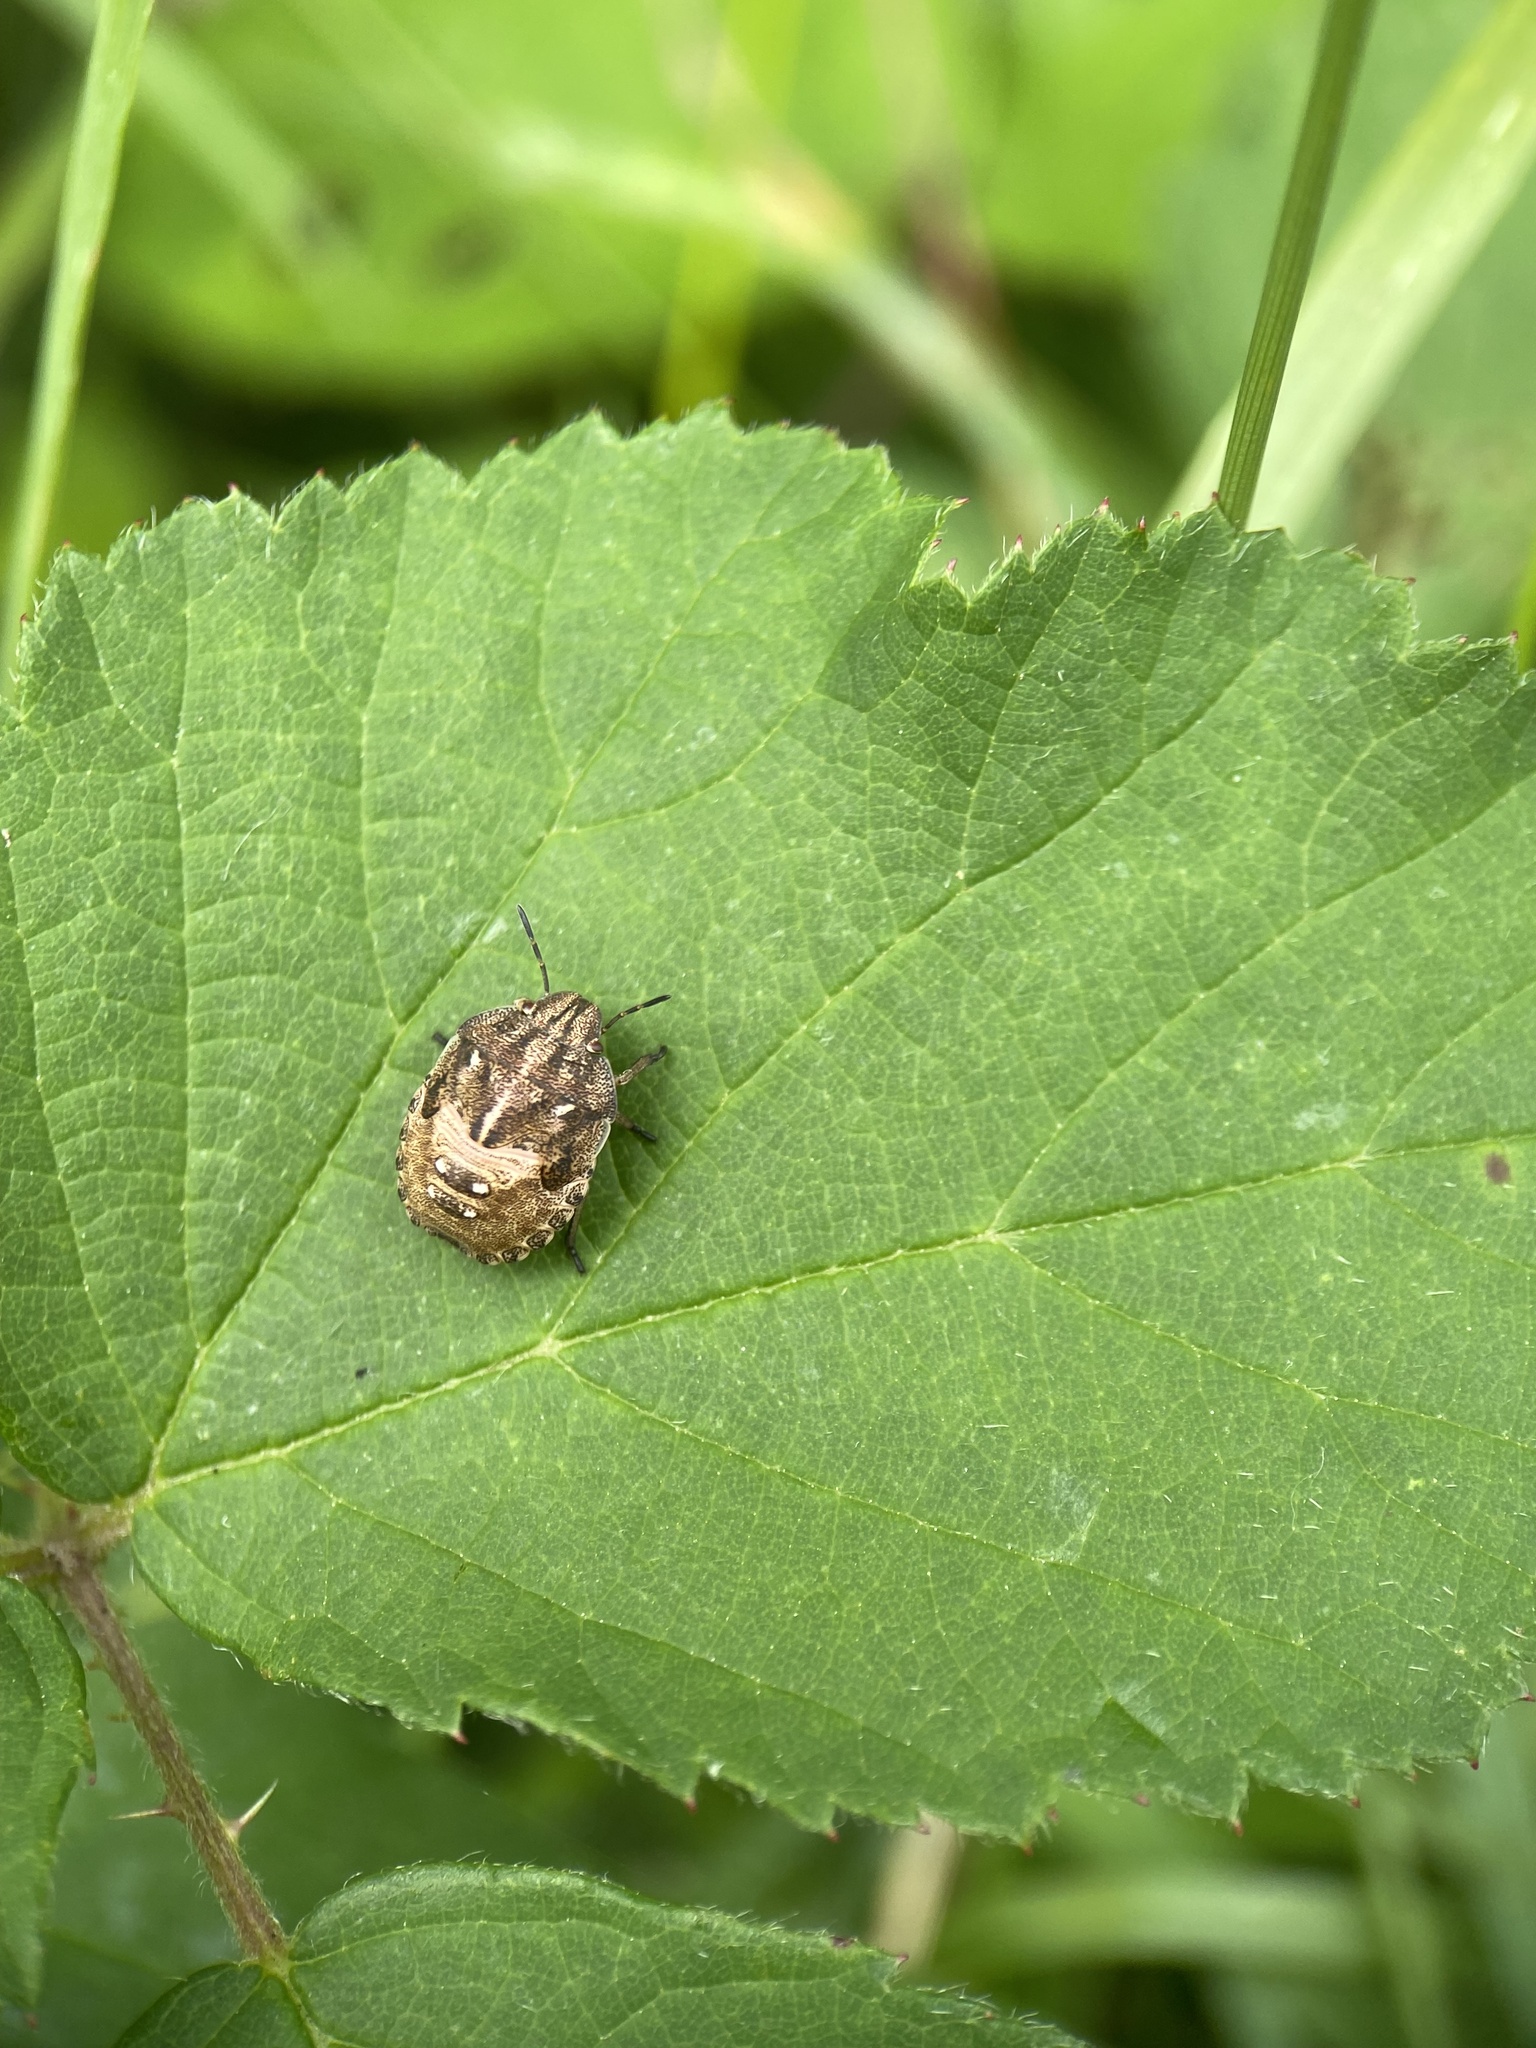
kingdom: Animalia
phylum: Arthropoda
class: Insecta
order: Hemiptera
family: Scutelleridae
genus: Eurygaster
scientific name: Eurygaster testudinaria
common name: Tortoise bug
